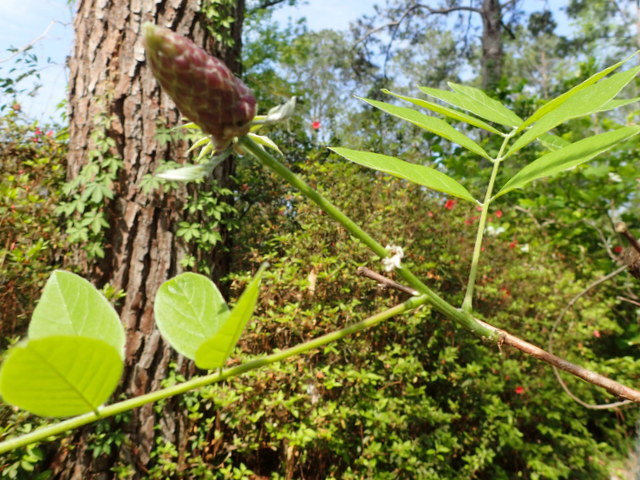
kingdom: Plantae
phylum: Tracheophyta
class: Magnoliopsida
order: Fabales
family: Fabaceae
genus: Wisteria
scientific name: Wisteria frutescens
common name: American wisteria
